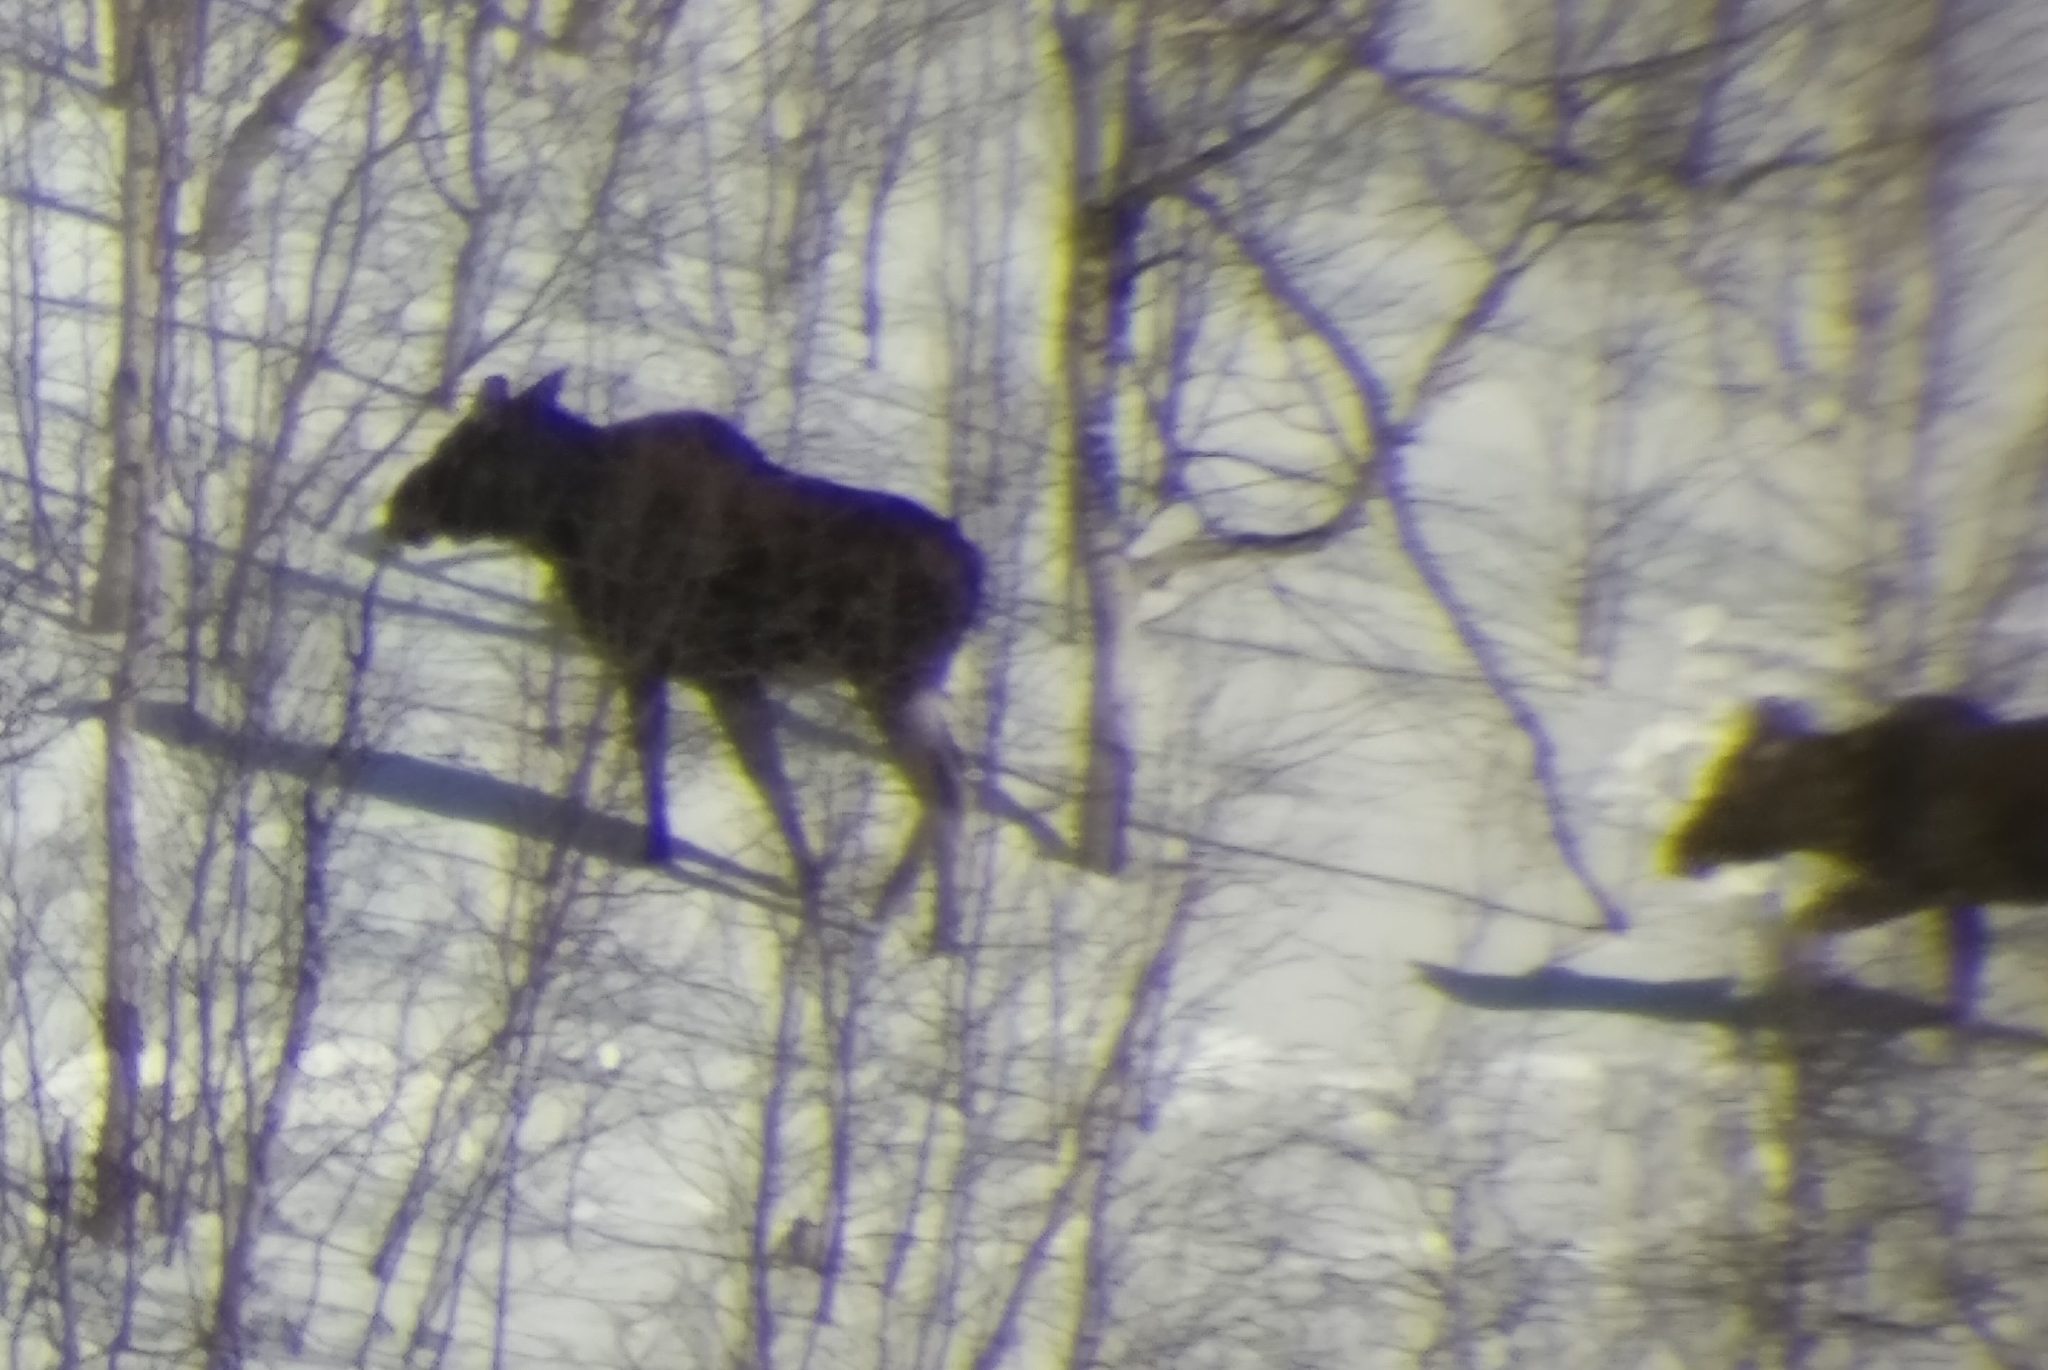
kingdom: Animalia
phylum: Chordata
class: Mammalia
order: Artiodactyla
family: Cervidae
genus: Alces
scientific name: Alces alces
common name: Moose
